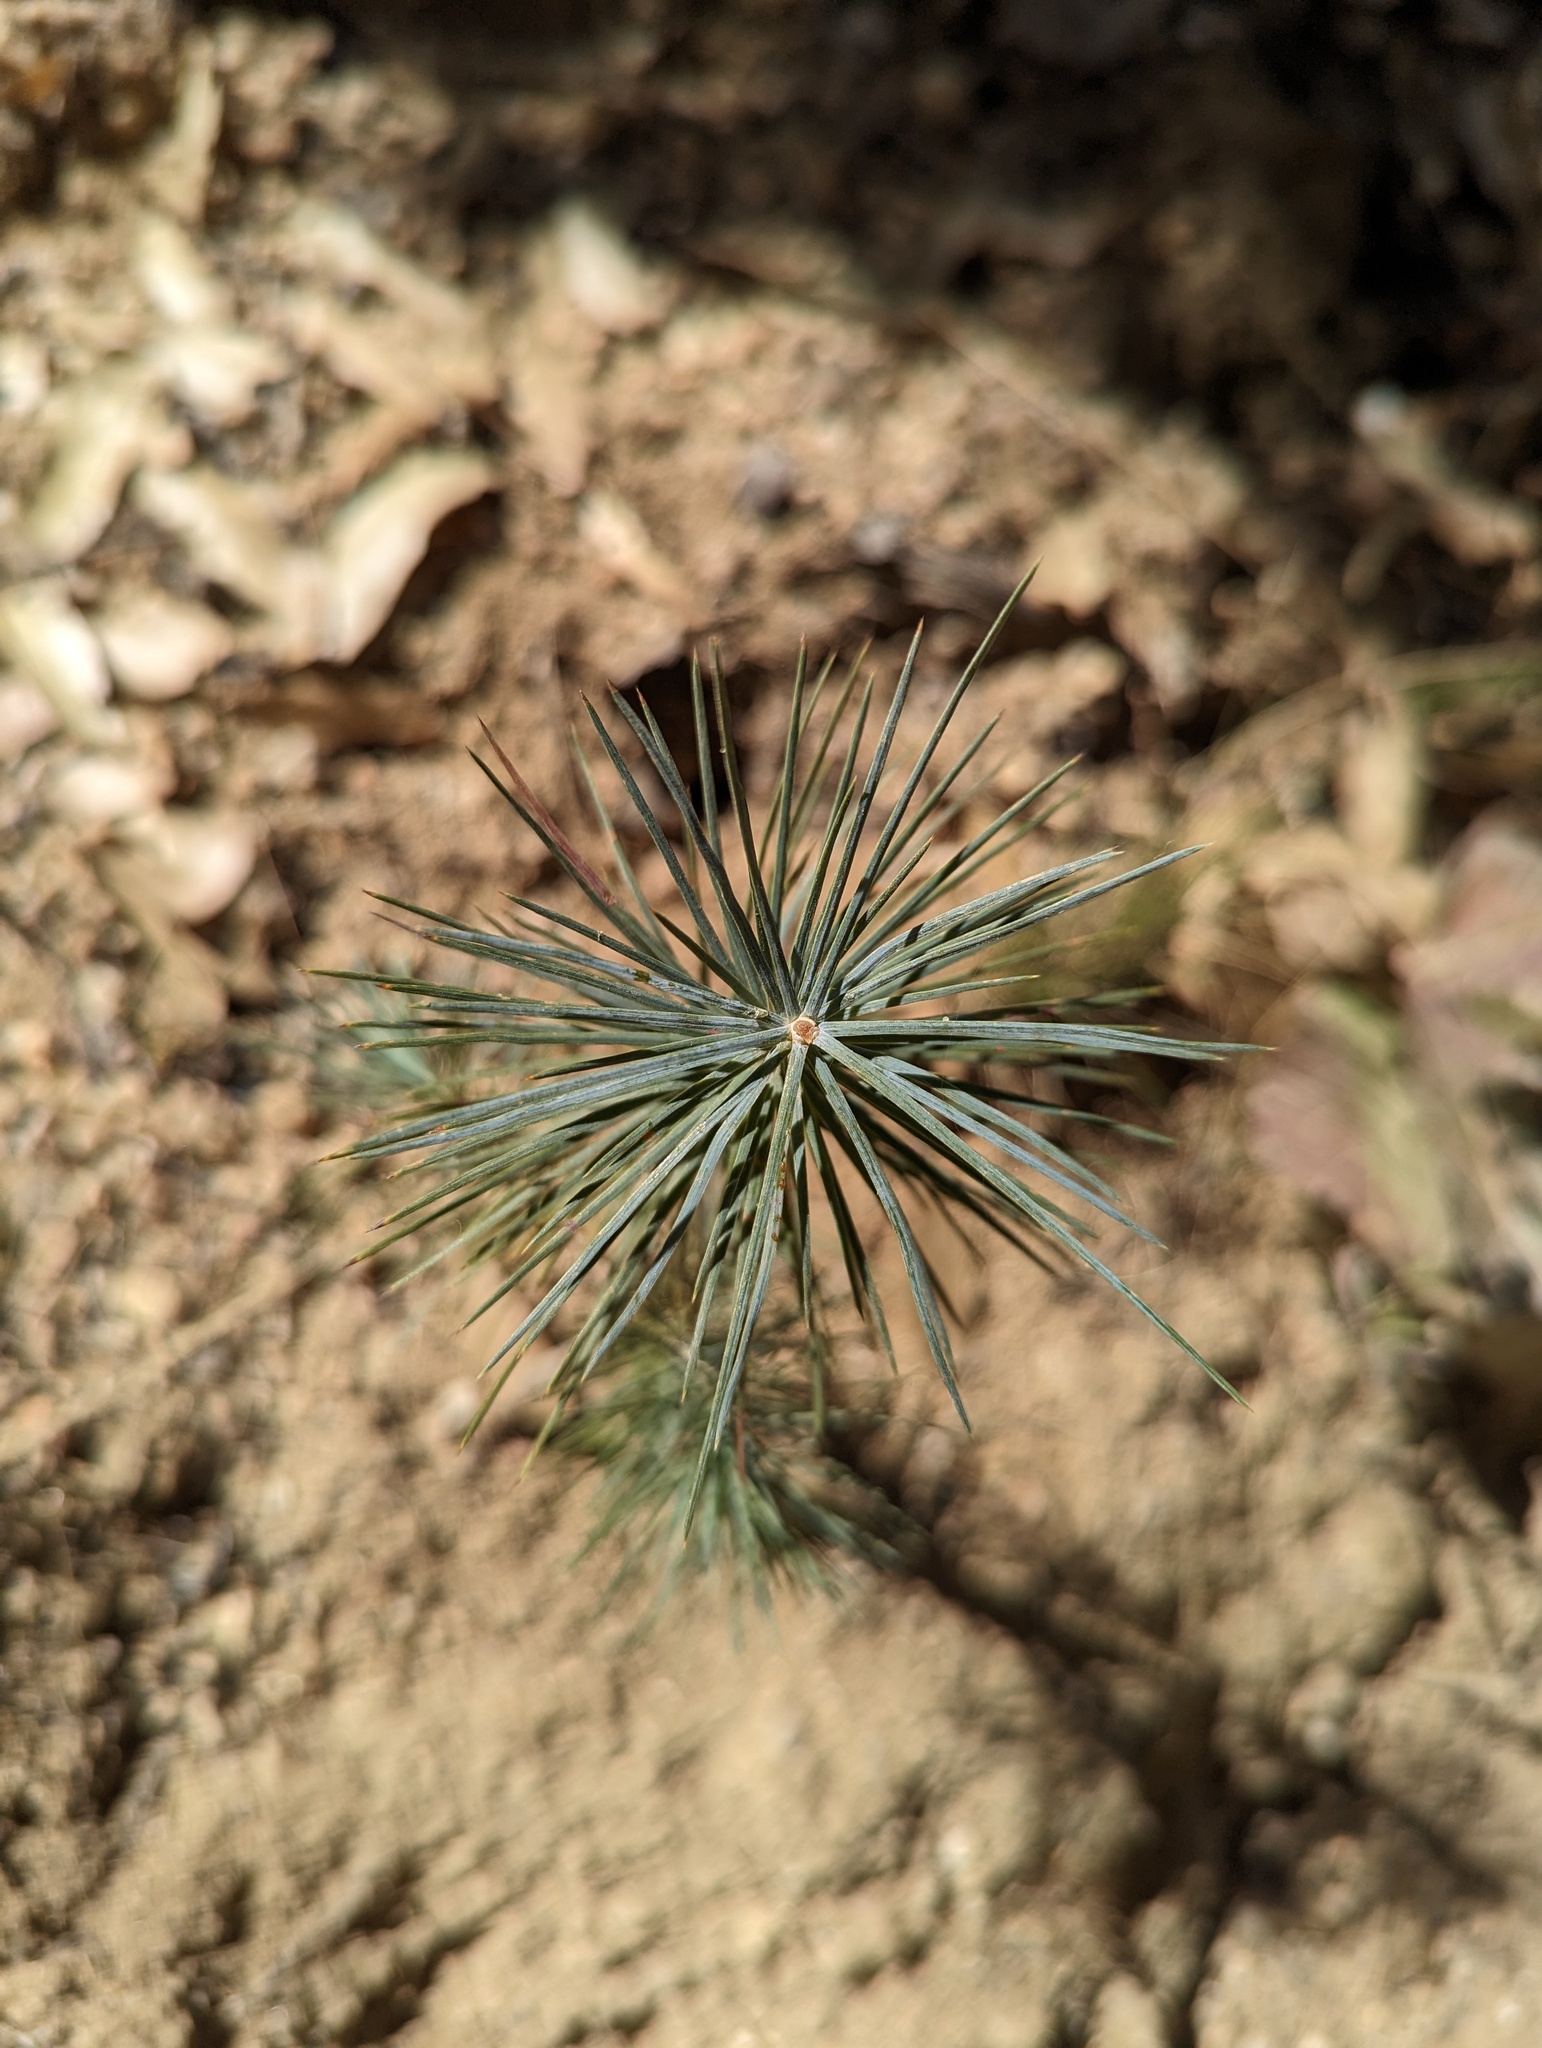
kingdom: Plantae
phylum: Tracheophyta
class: Pinopsida
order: Pinales
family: Pinaceae
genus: Pinus
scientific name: Pinus cembroides
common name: Mexican nut pine
